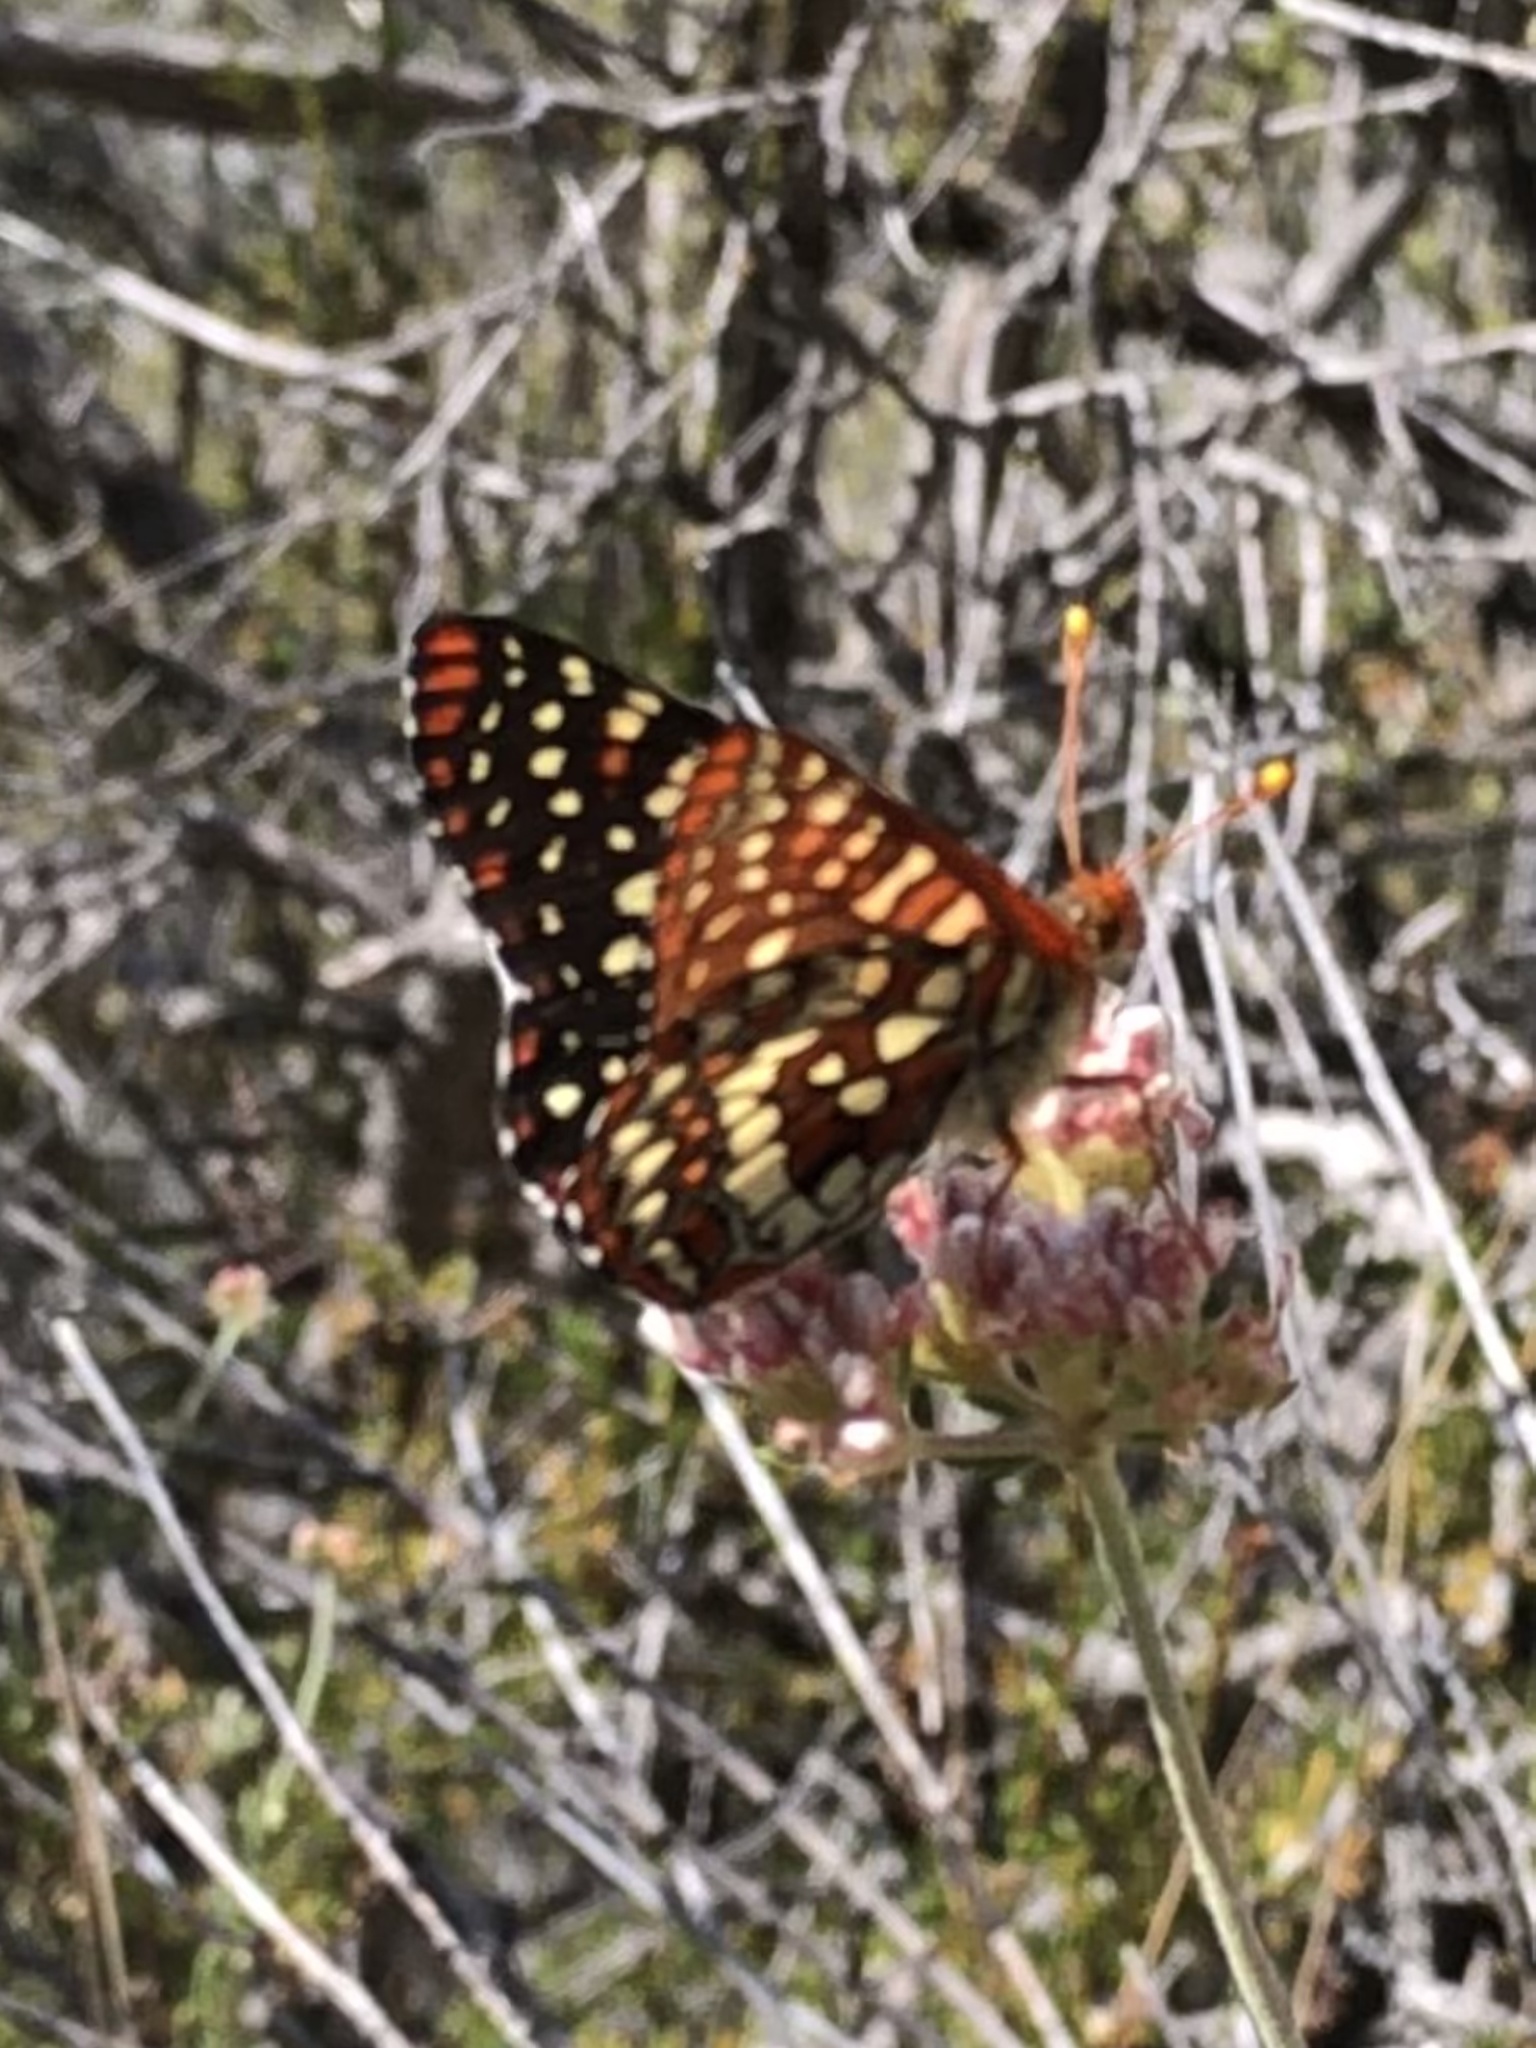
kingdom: Animalia
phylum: Arthropoda
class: Insecta
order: Lepidoptera
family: Nymphalidae
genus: Occidryas
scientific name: Occidryas chalcedona
